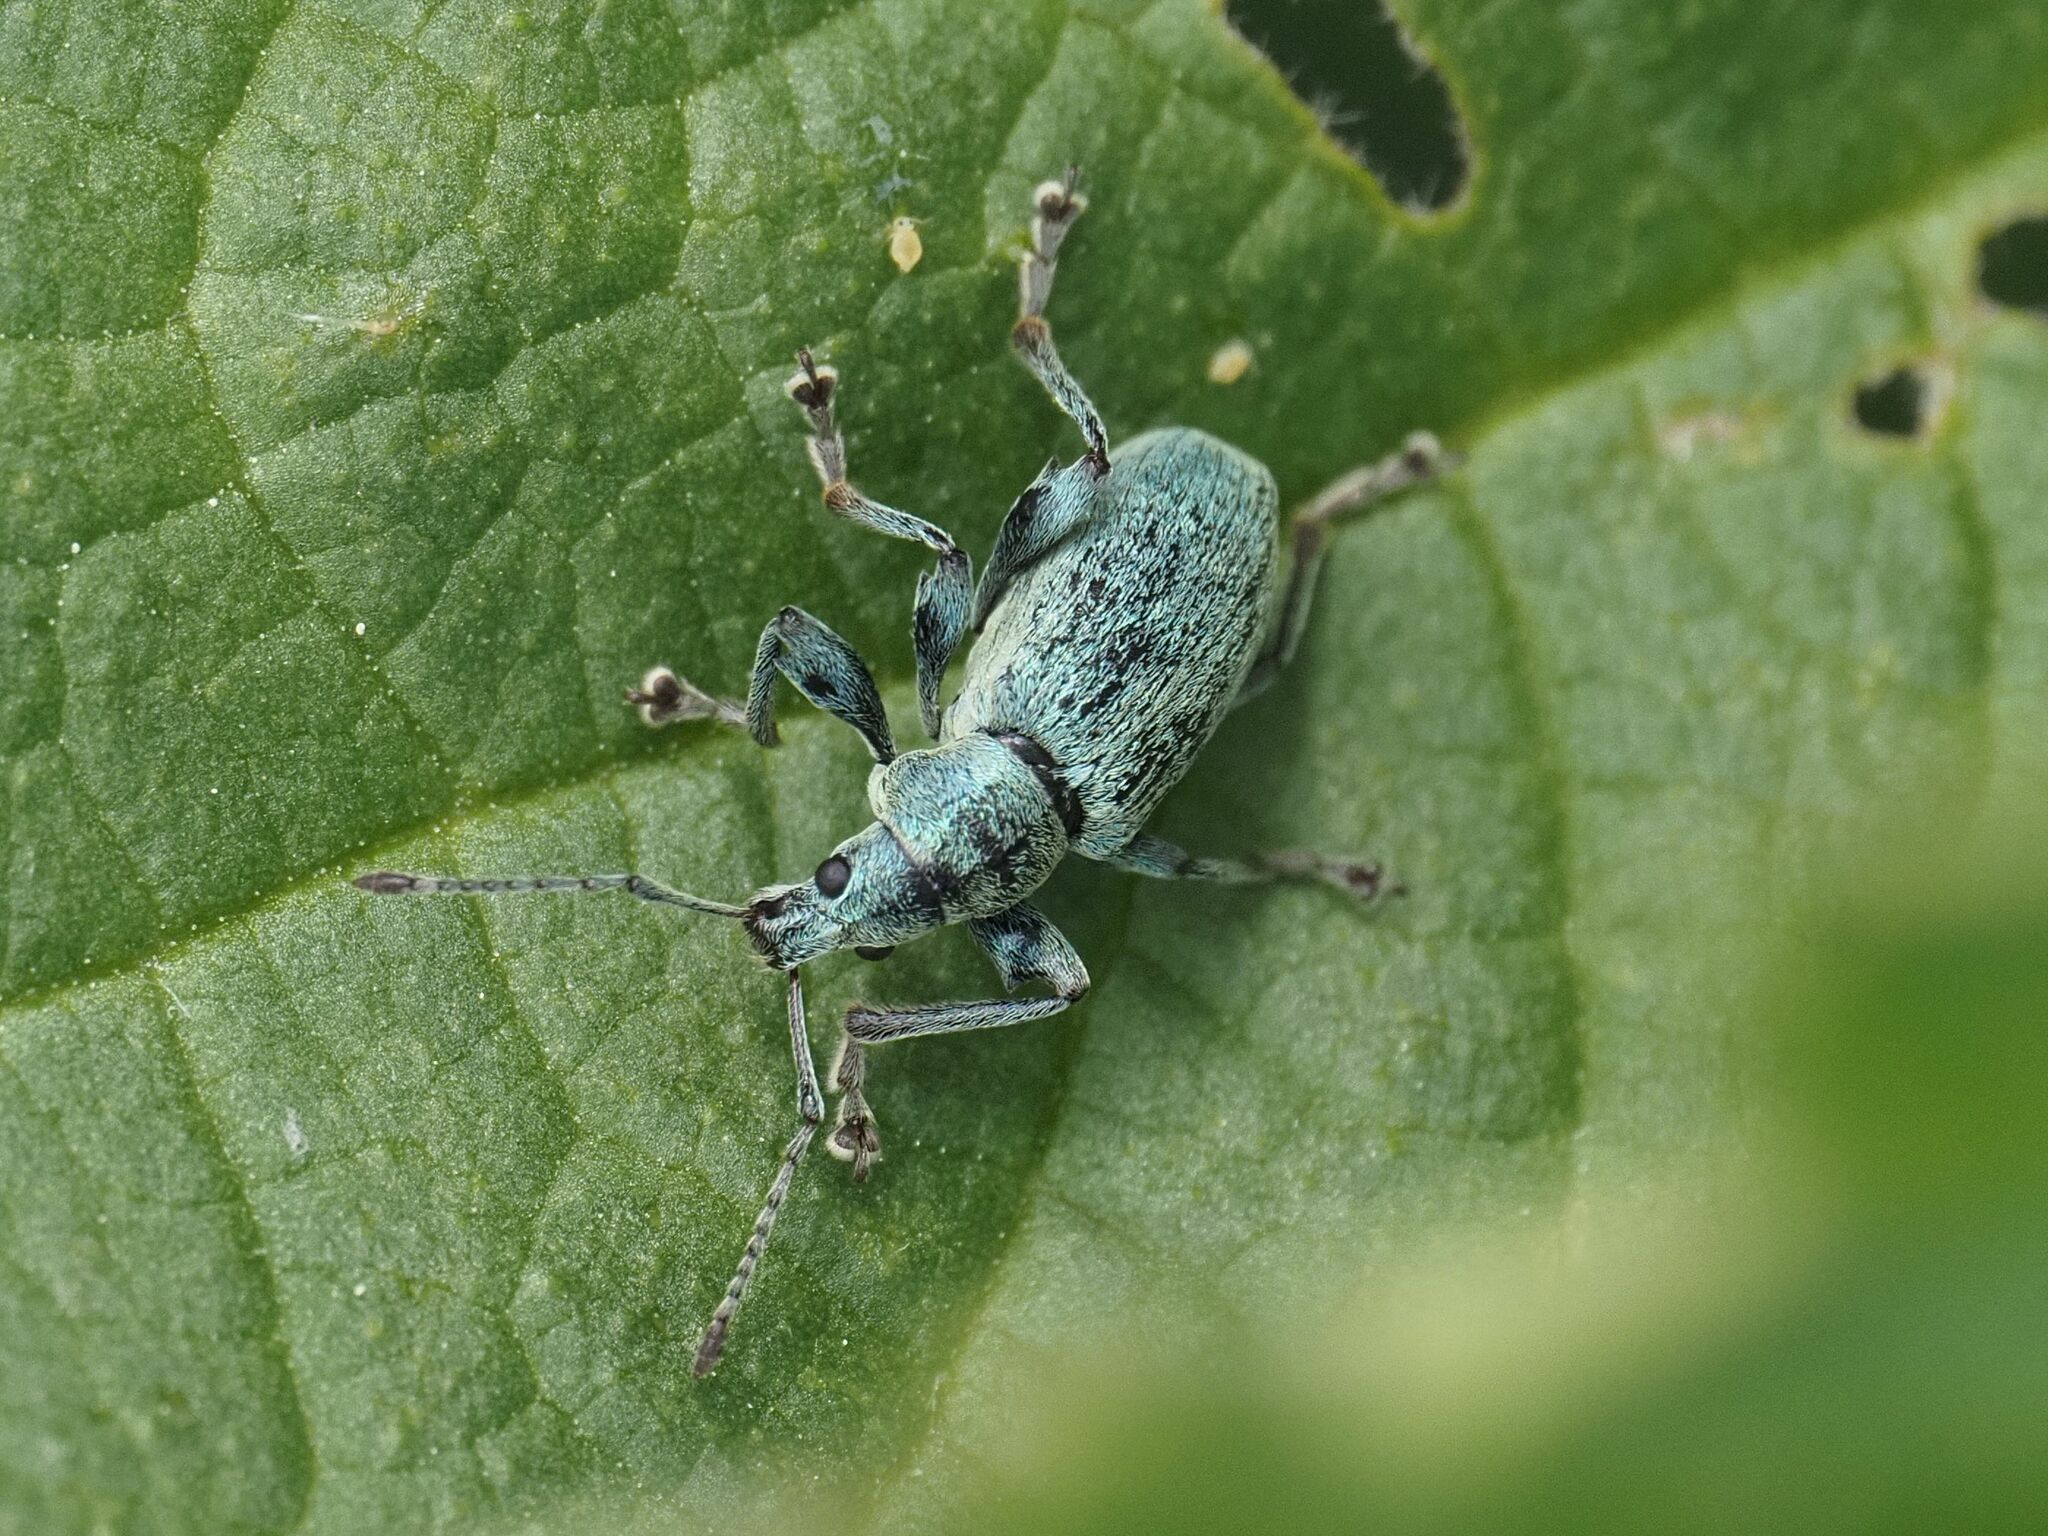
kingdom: Animalia
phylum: Arthropoda
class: Insecta
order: Coleoptera
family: Curculionidae
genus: Phyllobius
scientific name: Phyllobius pomaceus
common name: Green nettle weevil
